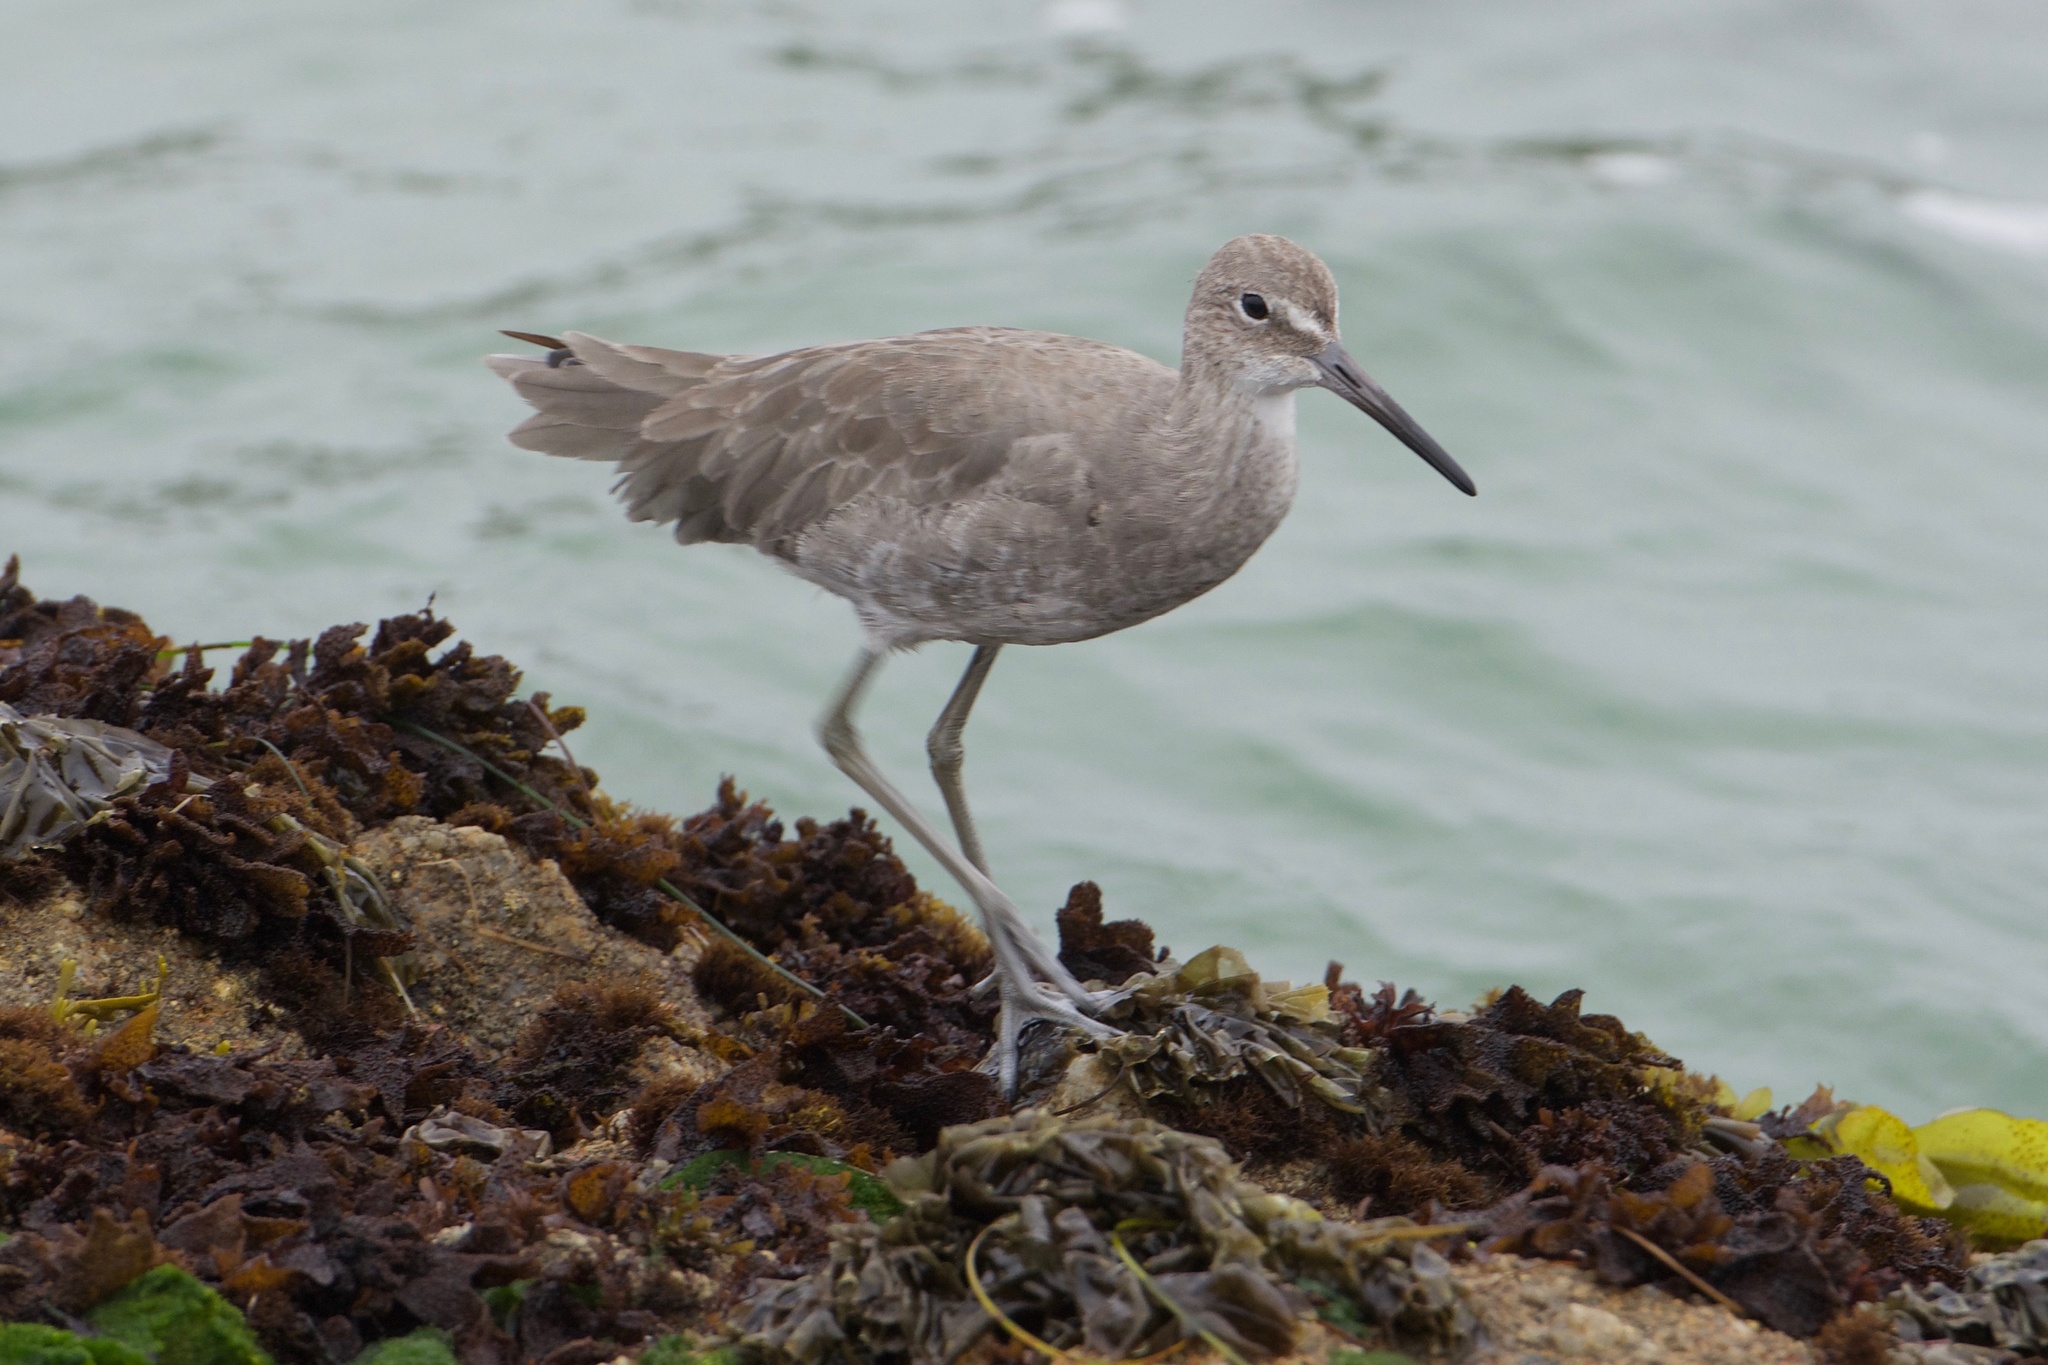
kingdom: Animalia
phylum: Chordata
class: Aves
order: Charadriiformes
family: Scolopacidae
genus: Tringa
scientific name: Tringa semipalmata
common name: Willet
